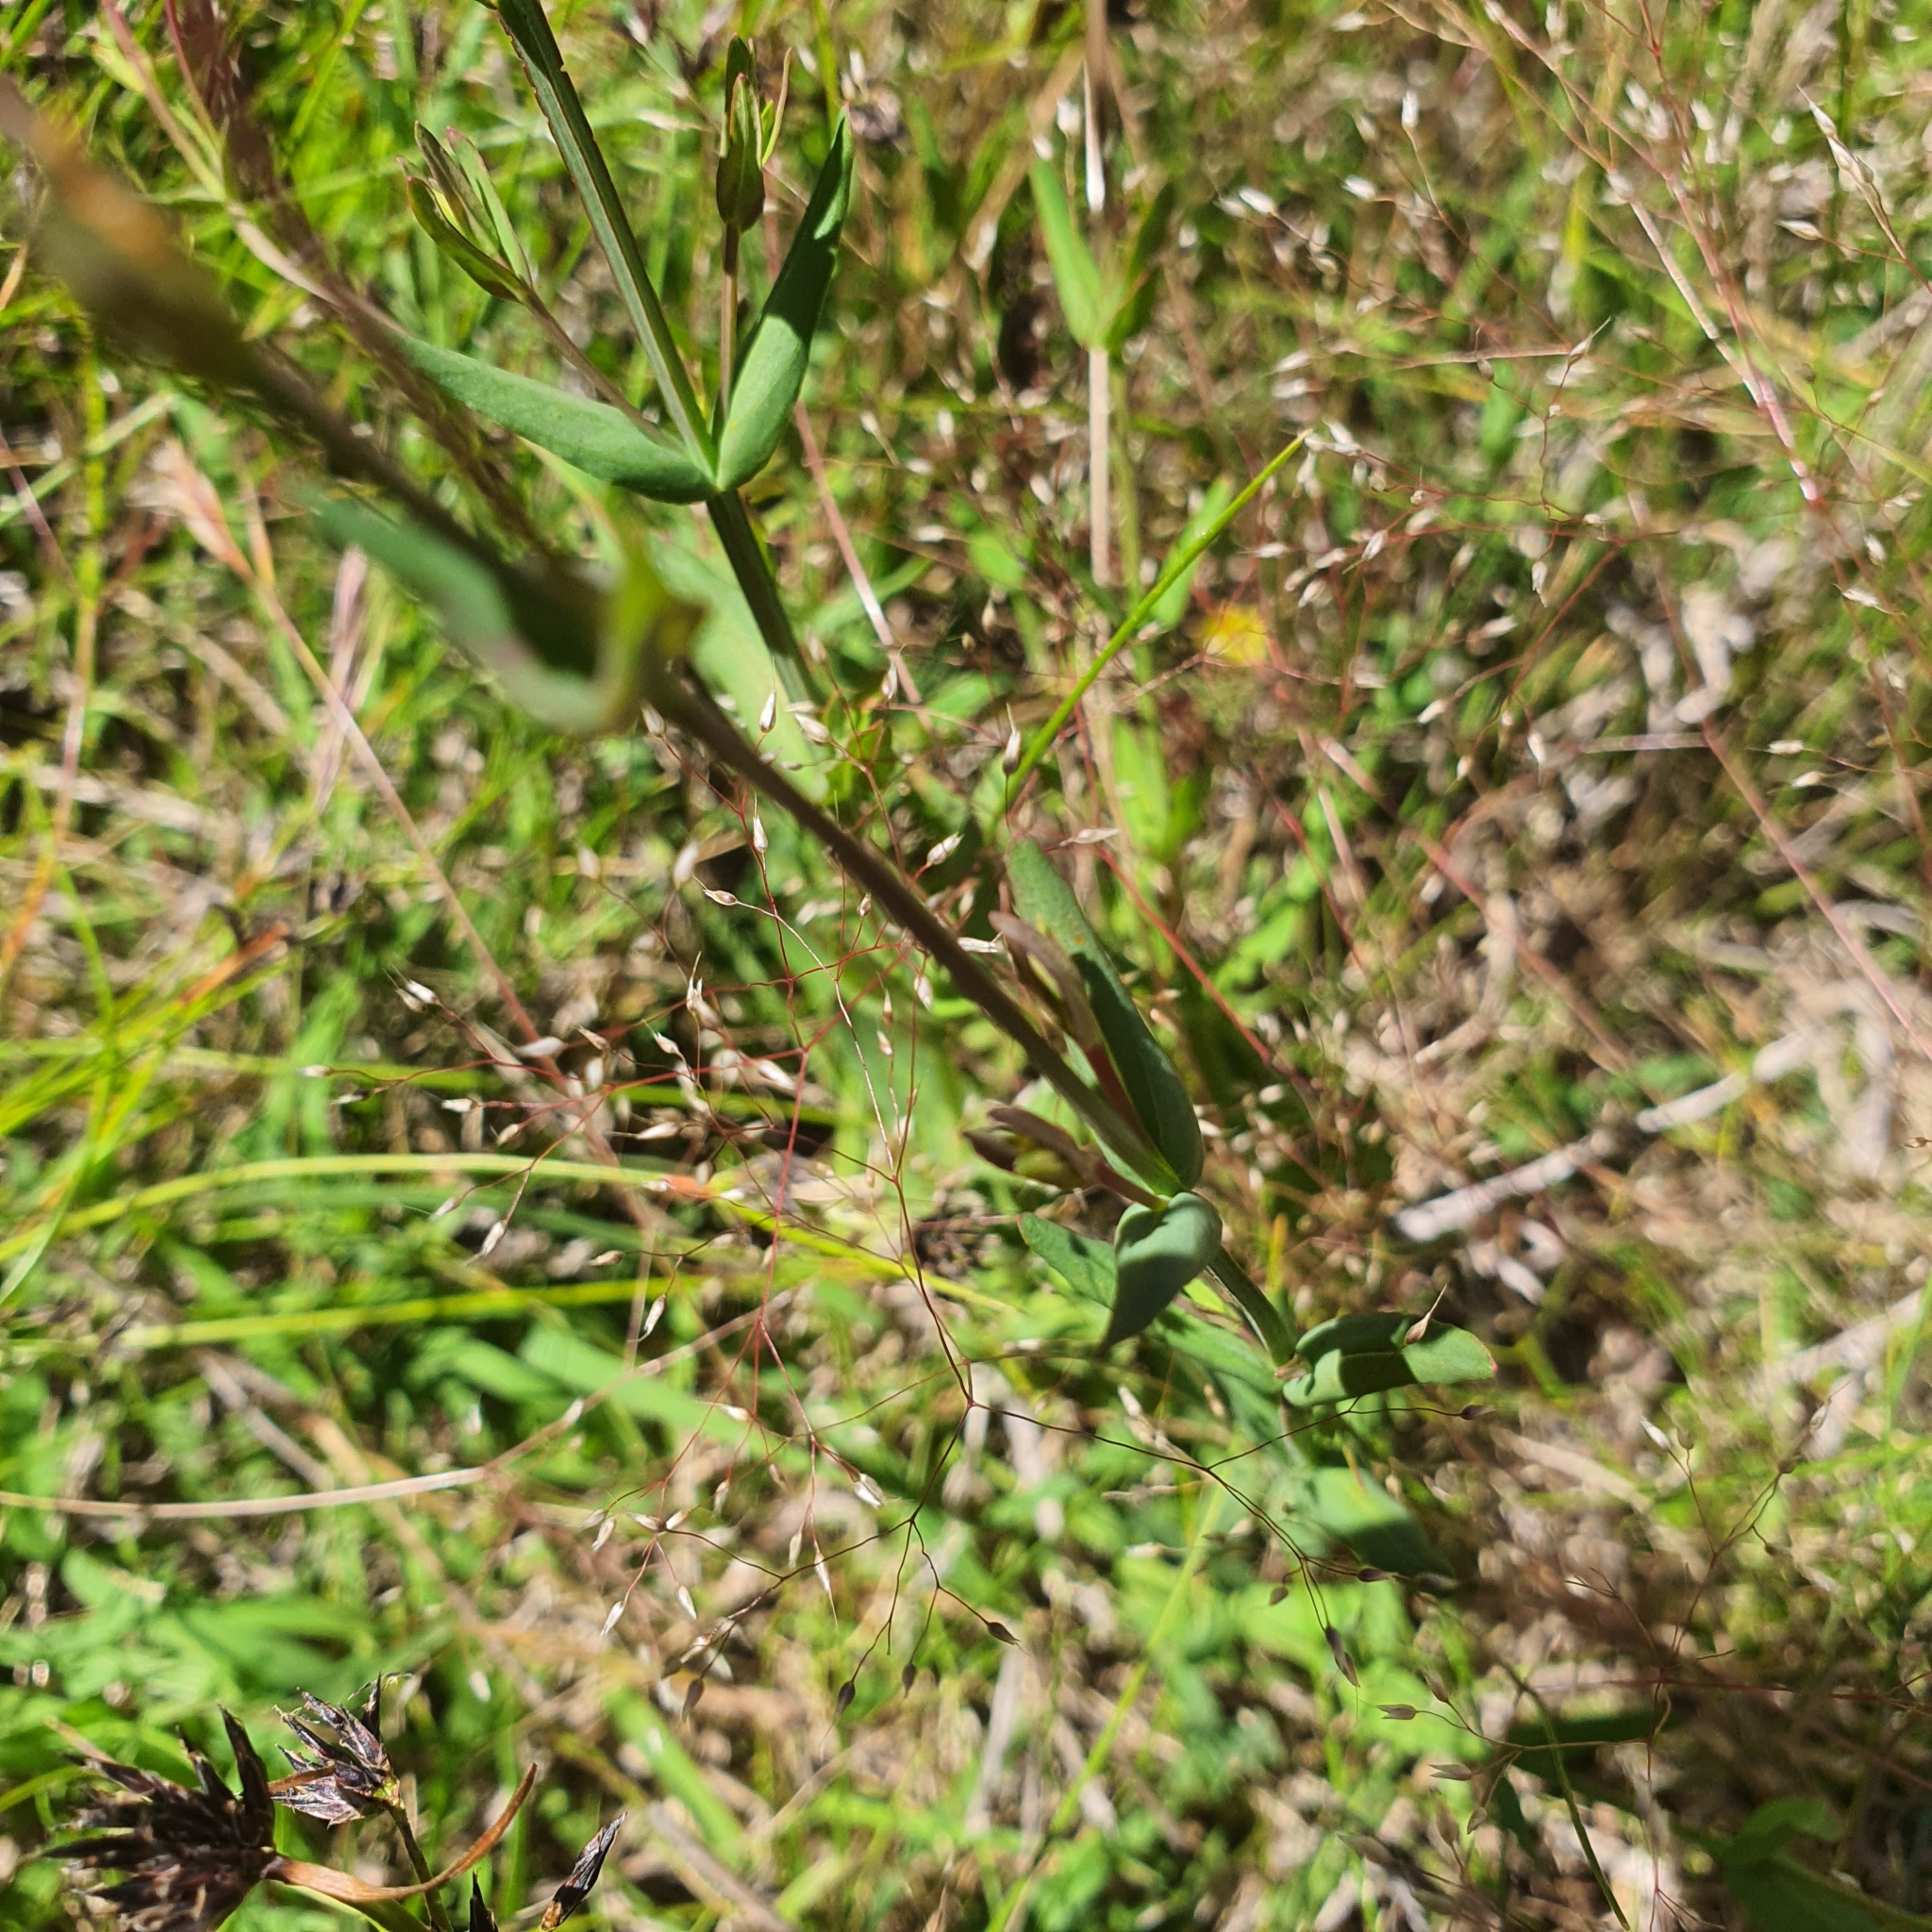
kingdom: Plantae
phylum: Tracheophyta
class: Magnoliopsida
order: Malpighiales
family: Hypericaceae
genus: Hypericum
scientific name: Hypericum gramineum
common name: Grassy st. johnswort
